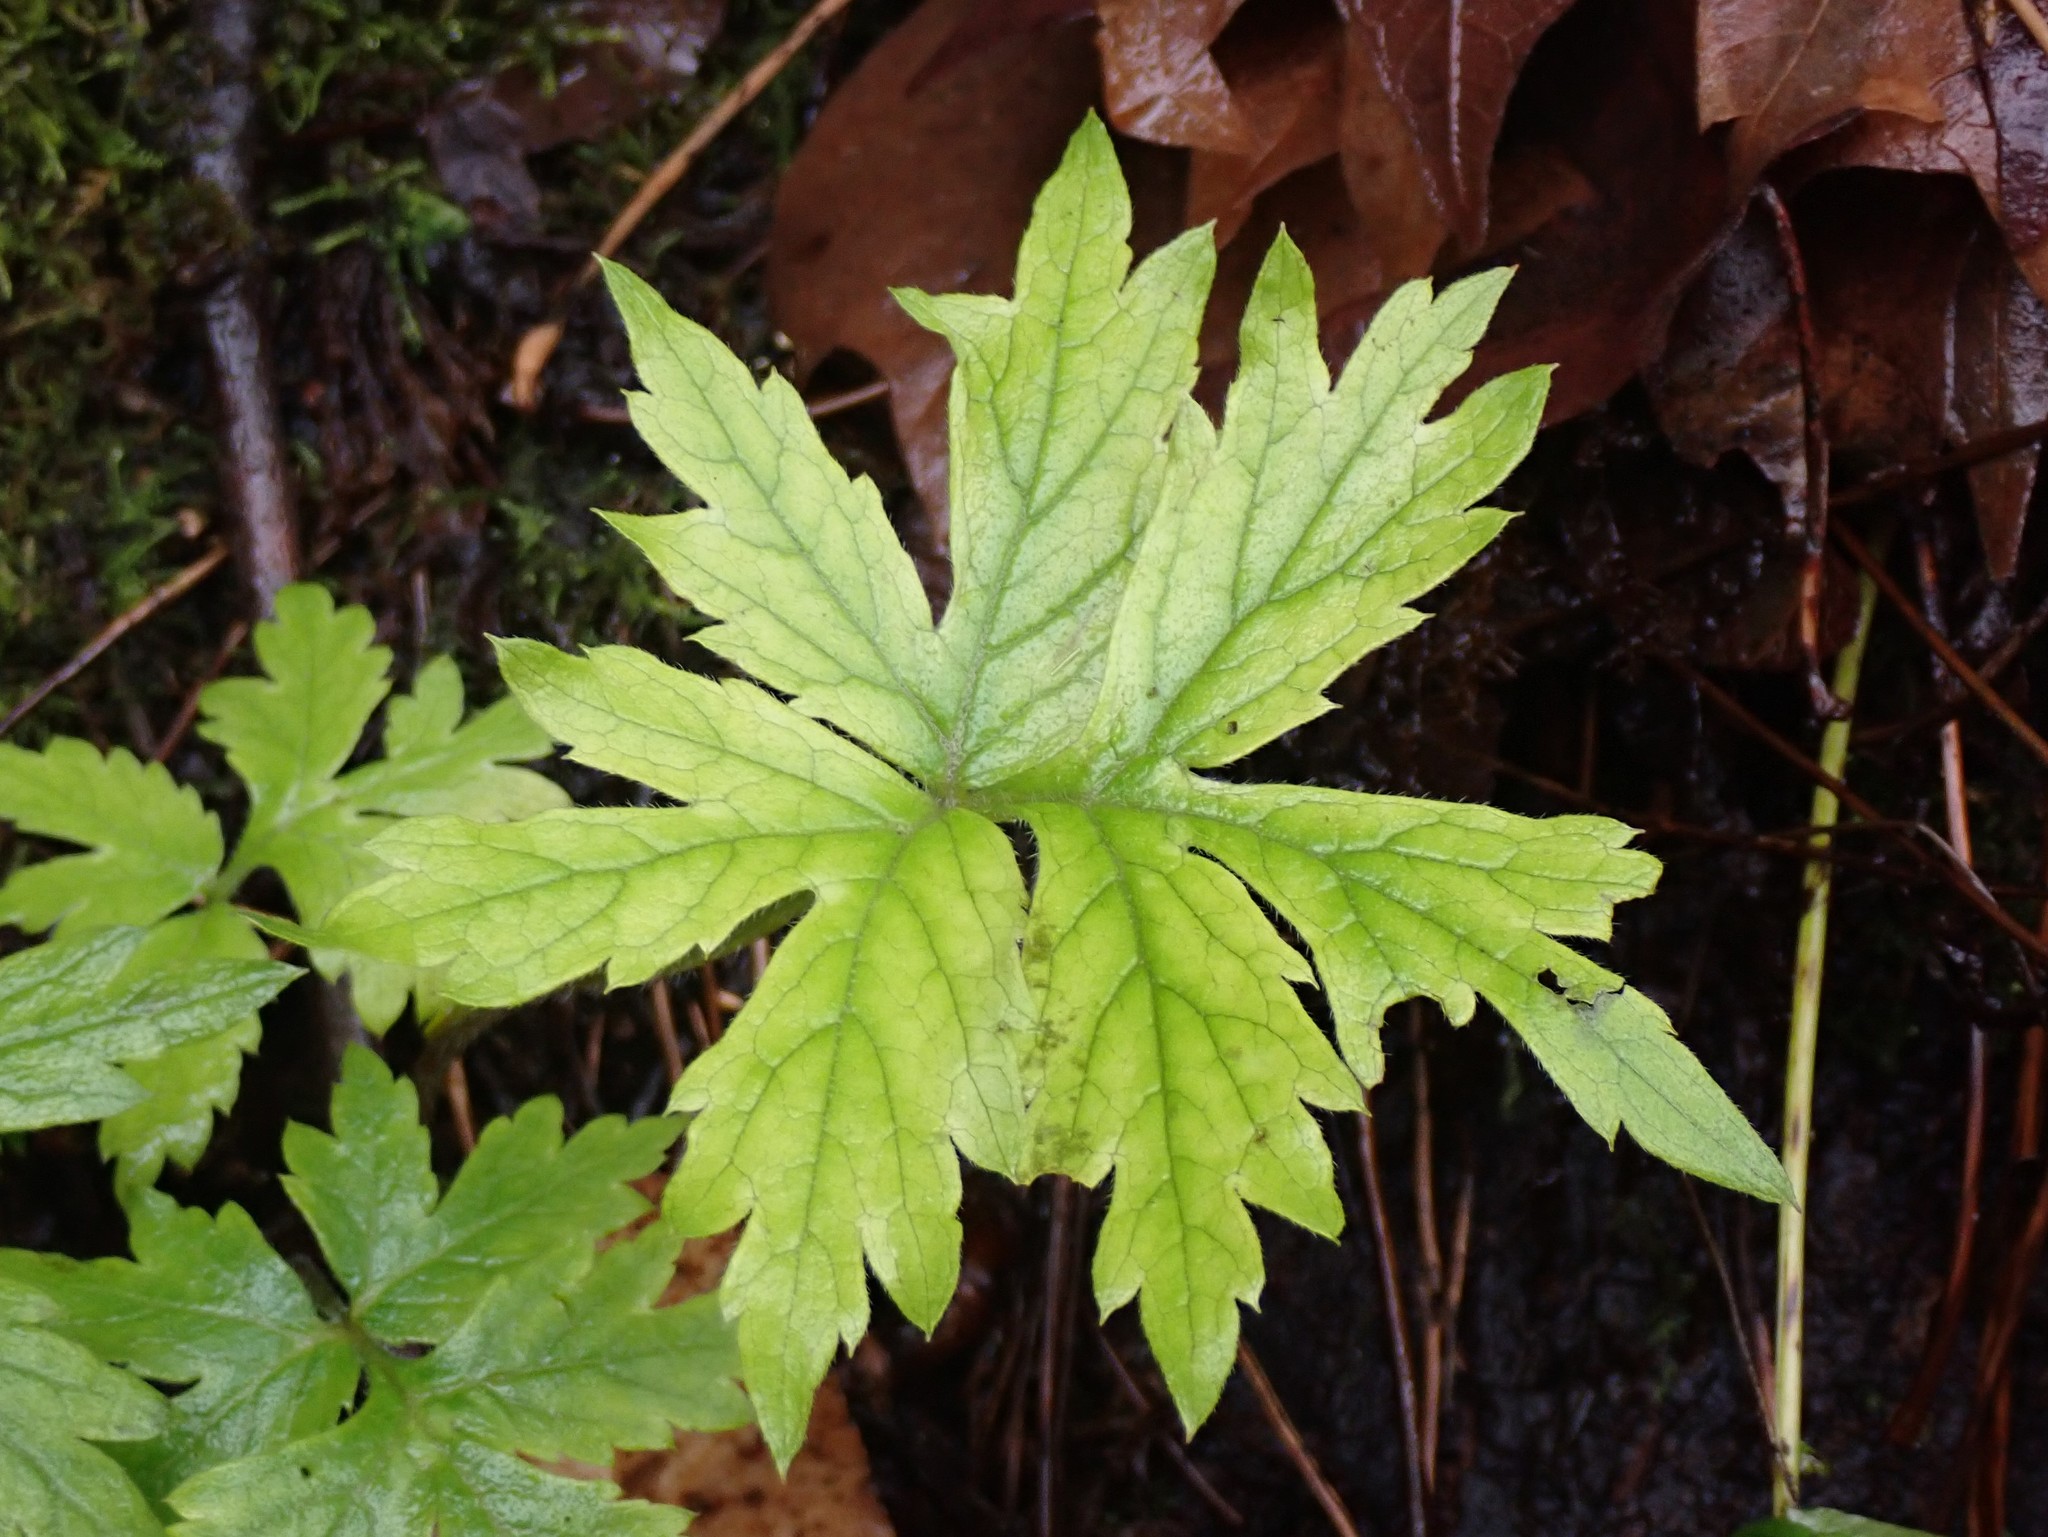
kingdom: Plantae
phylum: Tracheophyta
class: Magnoliopsida
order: Boraginales
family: Hydrophyllaceae
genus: Hydrophyllum
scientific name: Hydrophyllum tenuipes
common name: Pacific waterleaf
